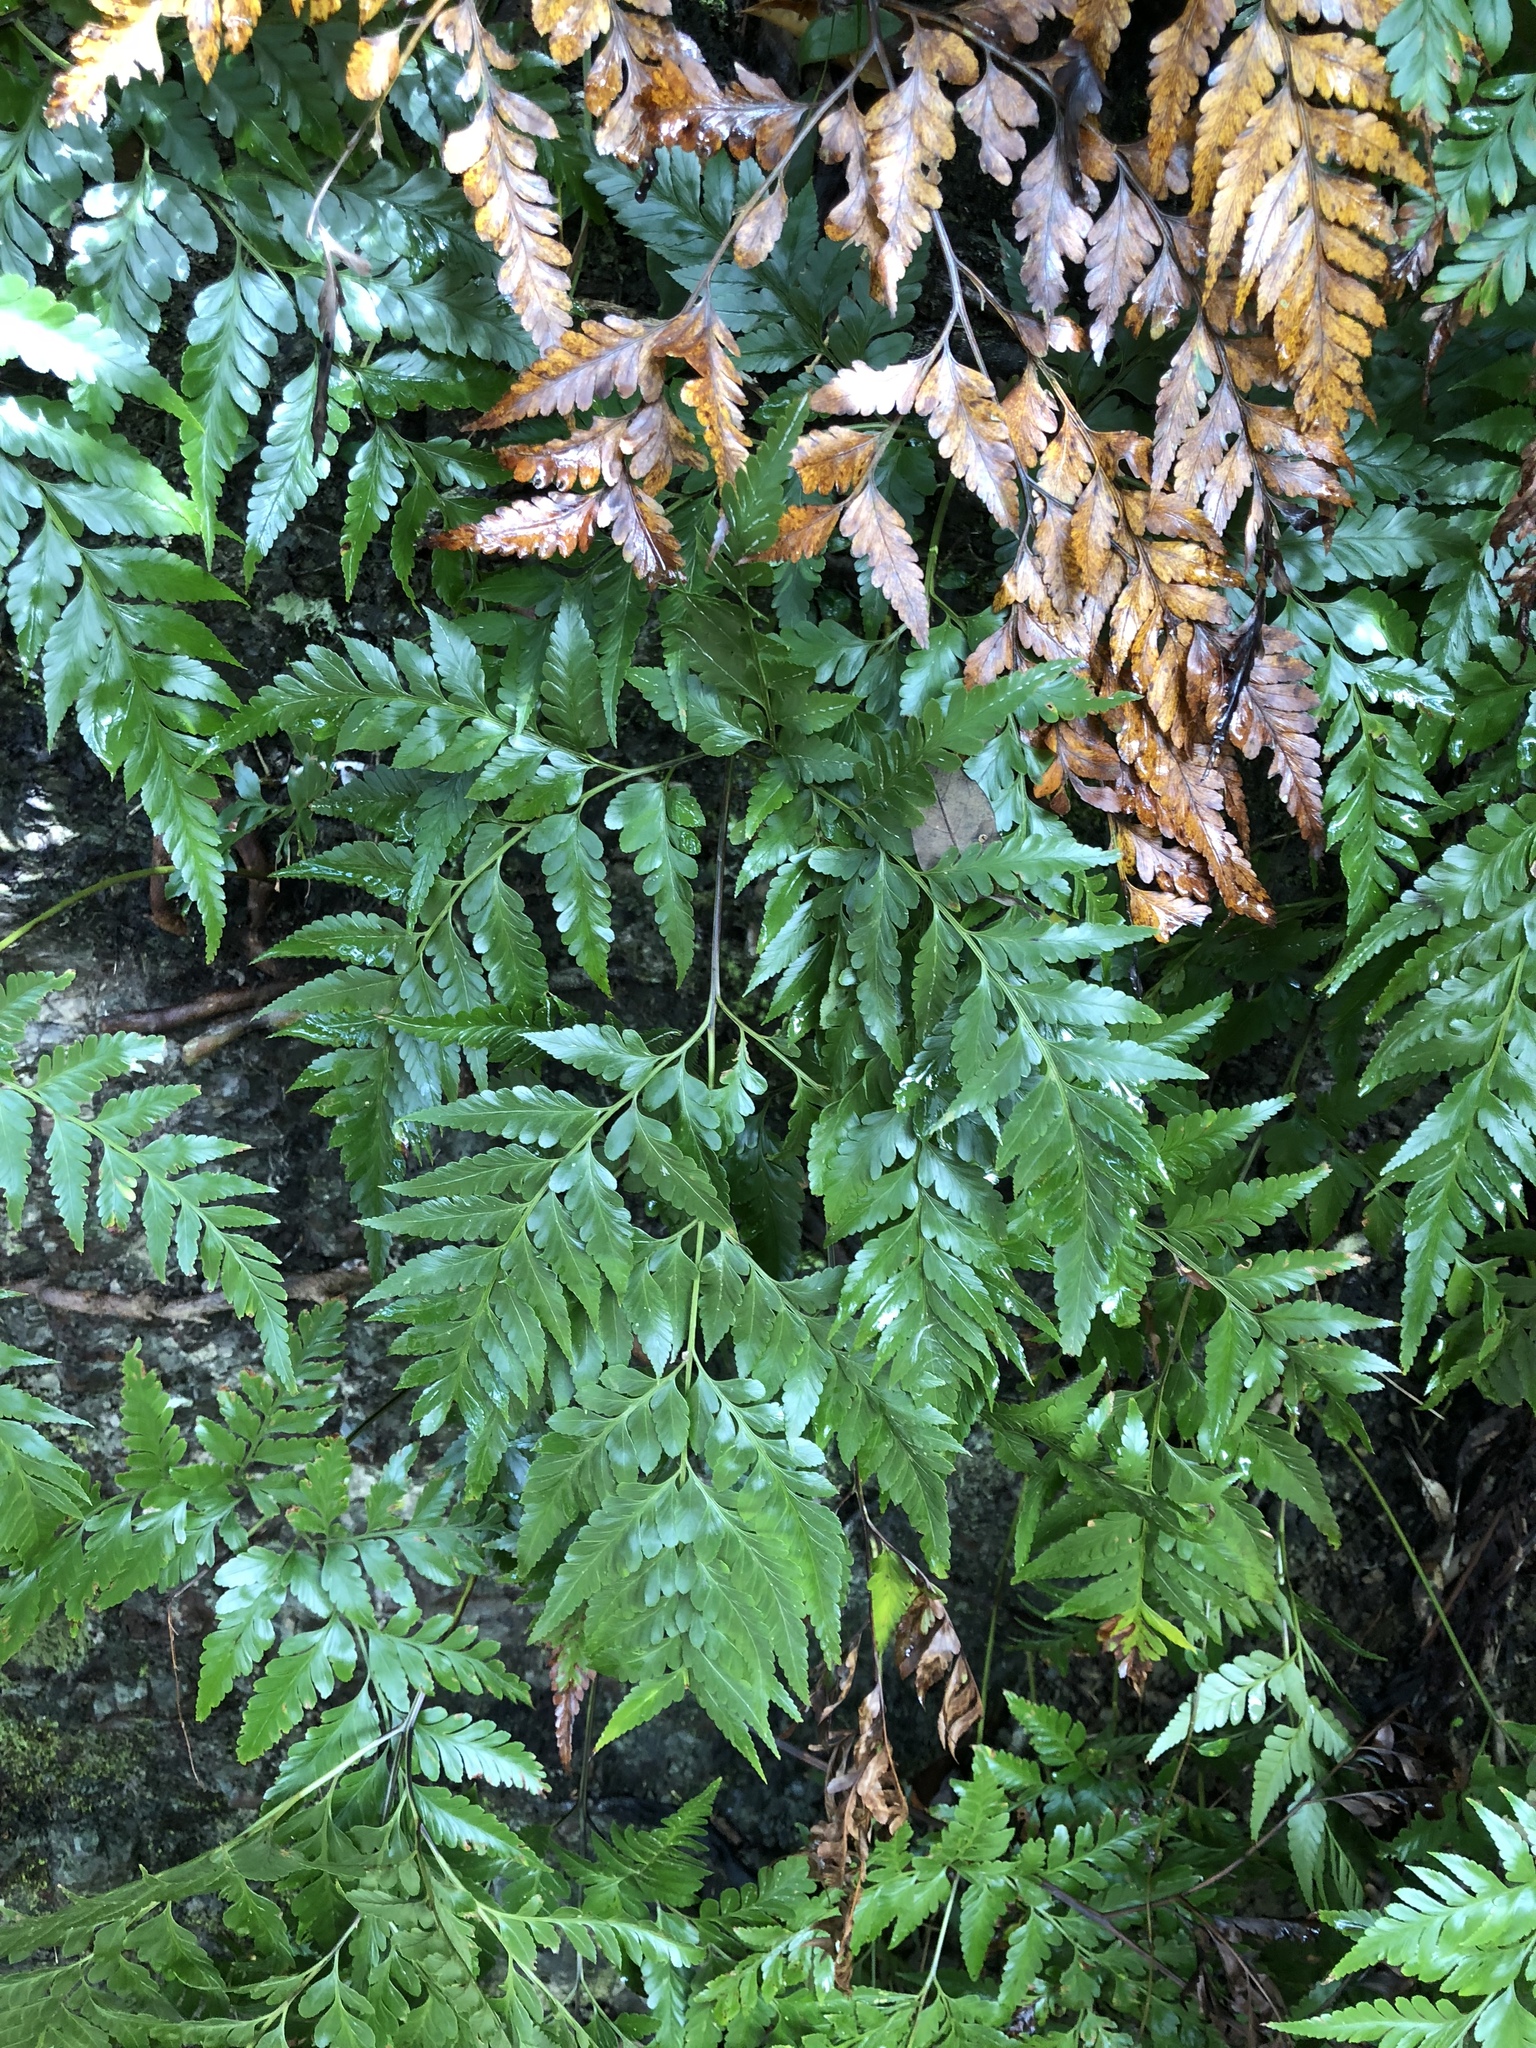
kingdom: Plantae
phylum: Tracheophyta
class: Polypodiopsida
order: Polypodiales
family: Davalliaceae
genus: Davallia
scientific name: Davallia solida
